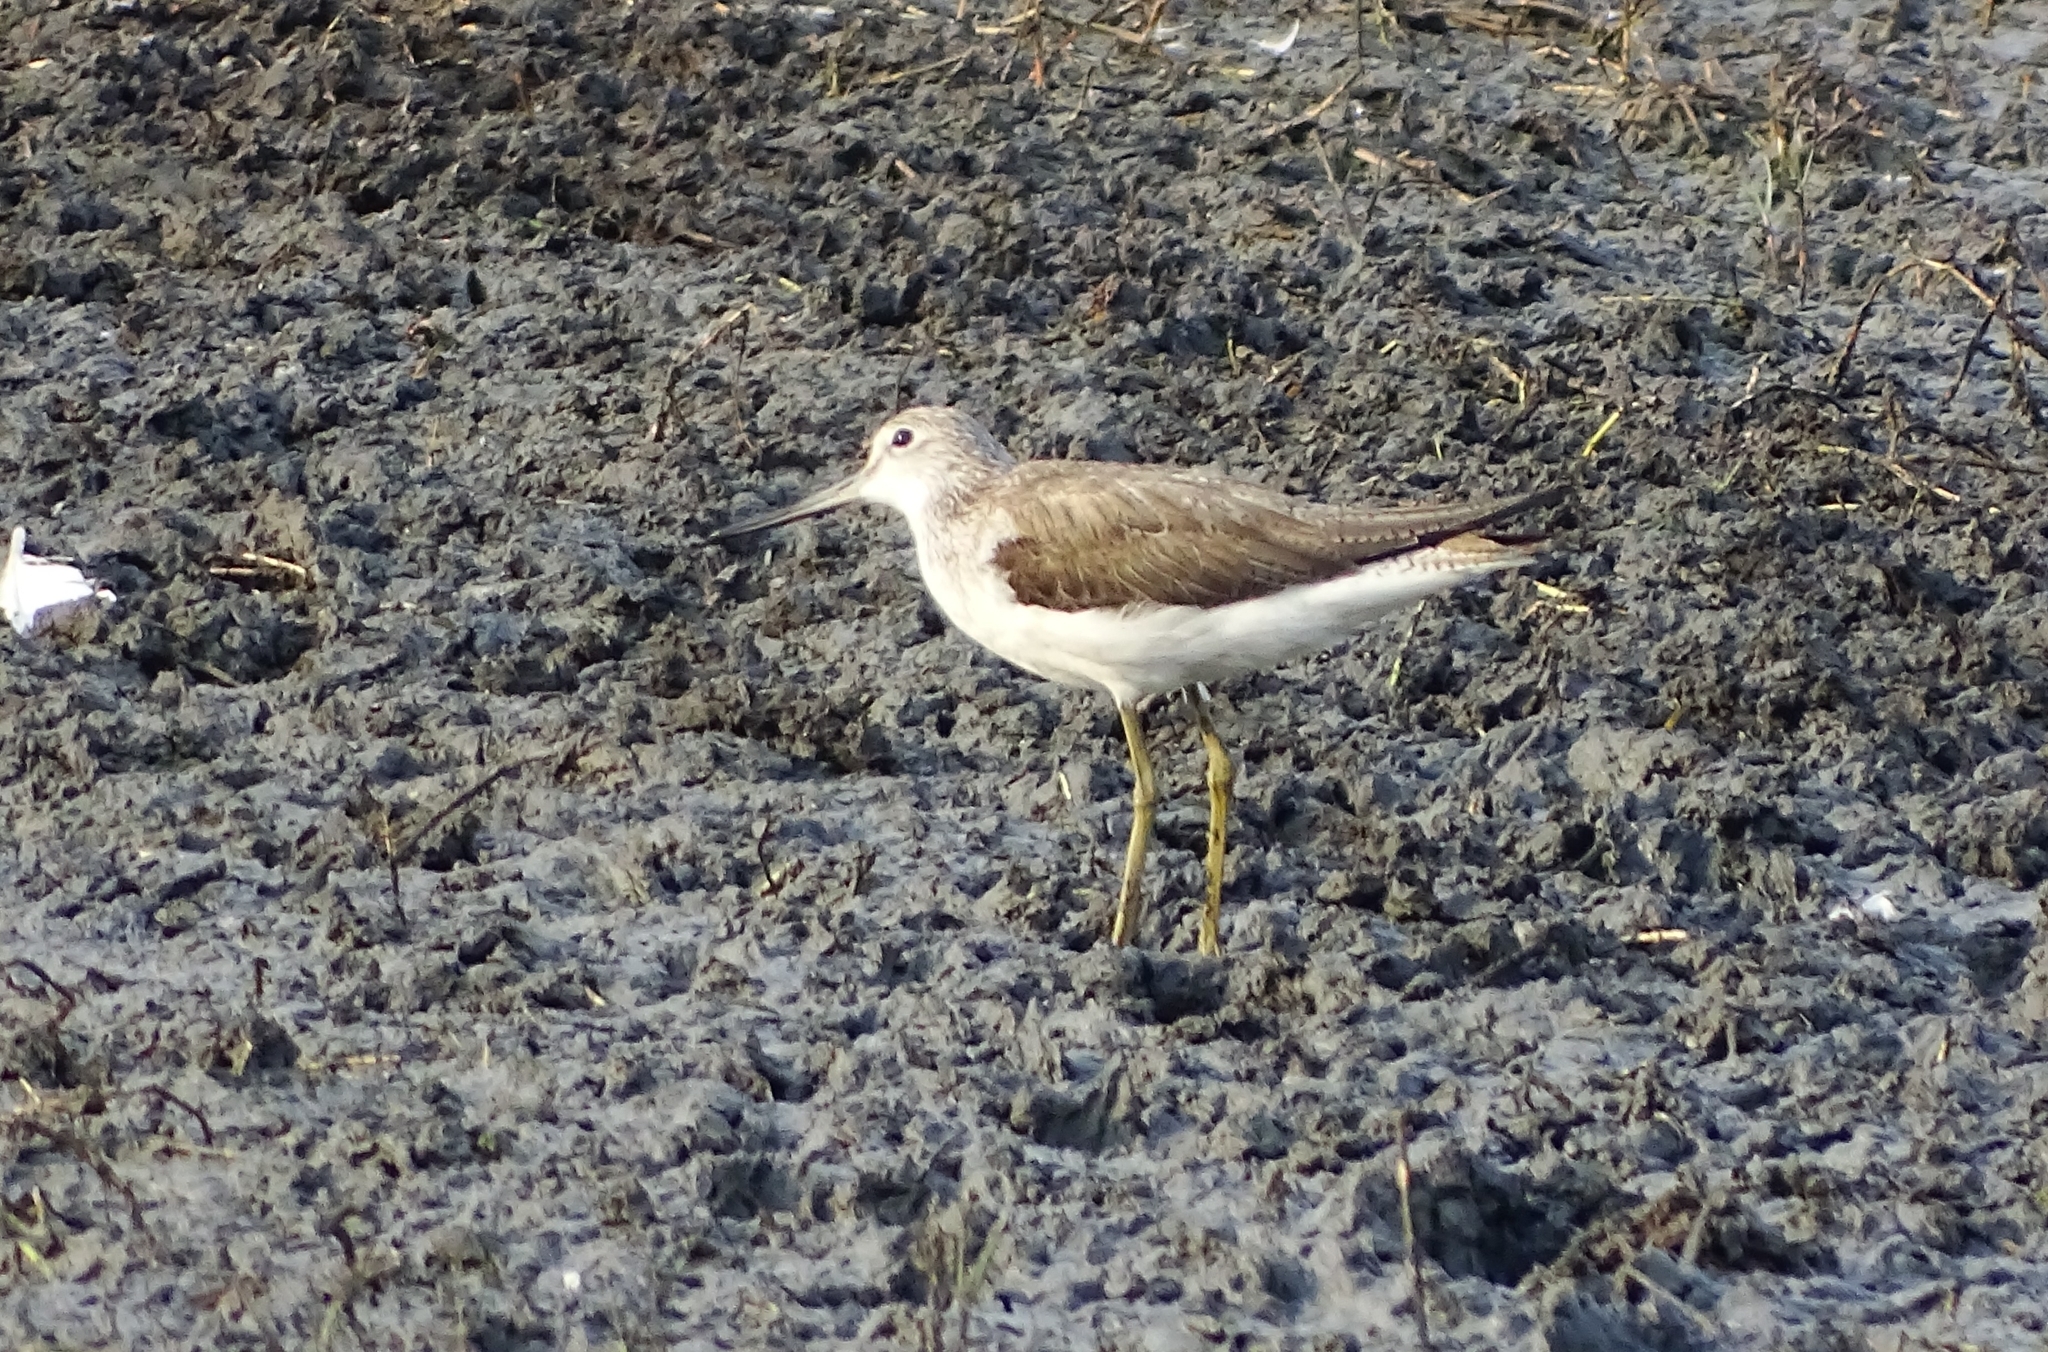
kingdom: Animalia
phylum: Chordata
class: Aves
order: Charadriiformes
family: Scolopacidae
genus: Tringa
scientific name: Tringa nebularia
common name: Common greenshank
